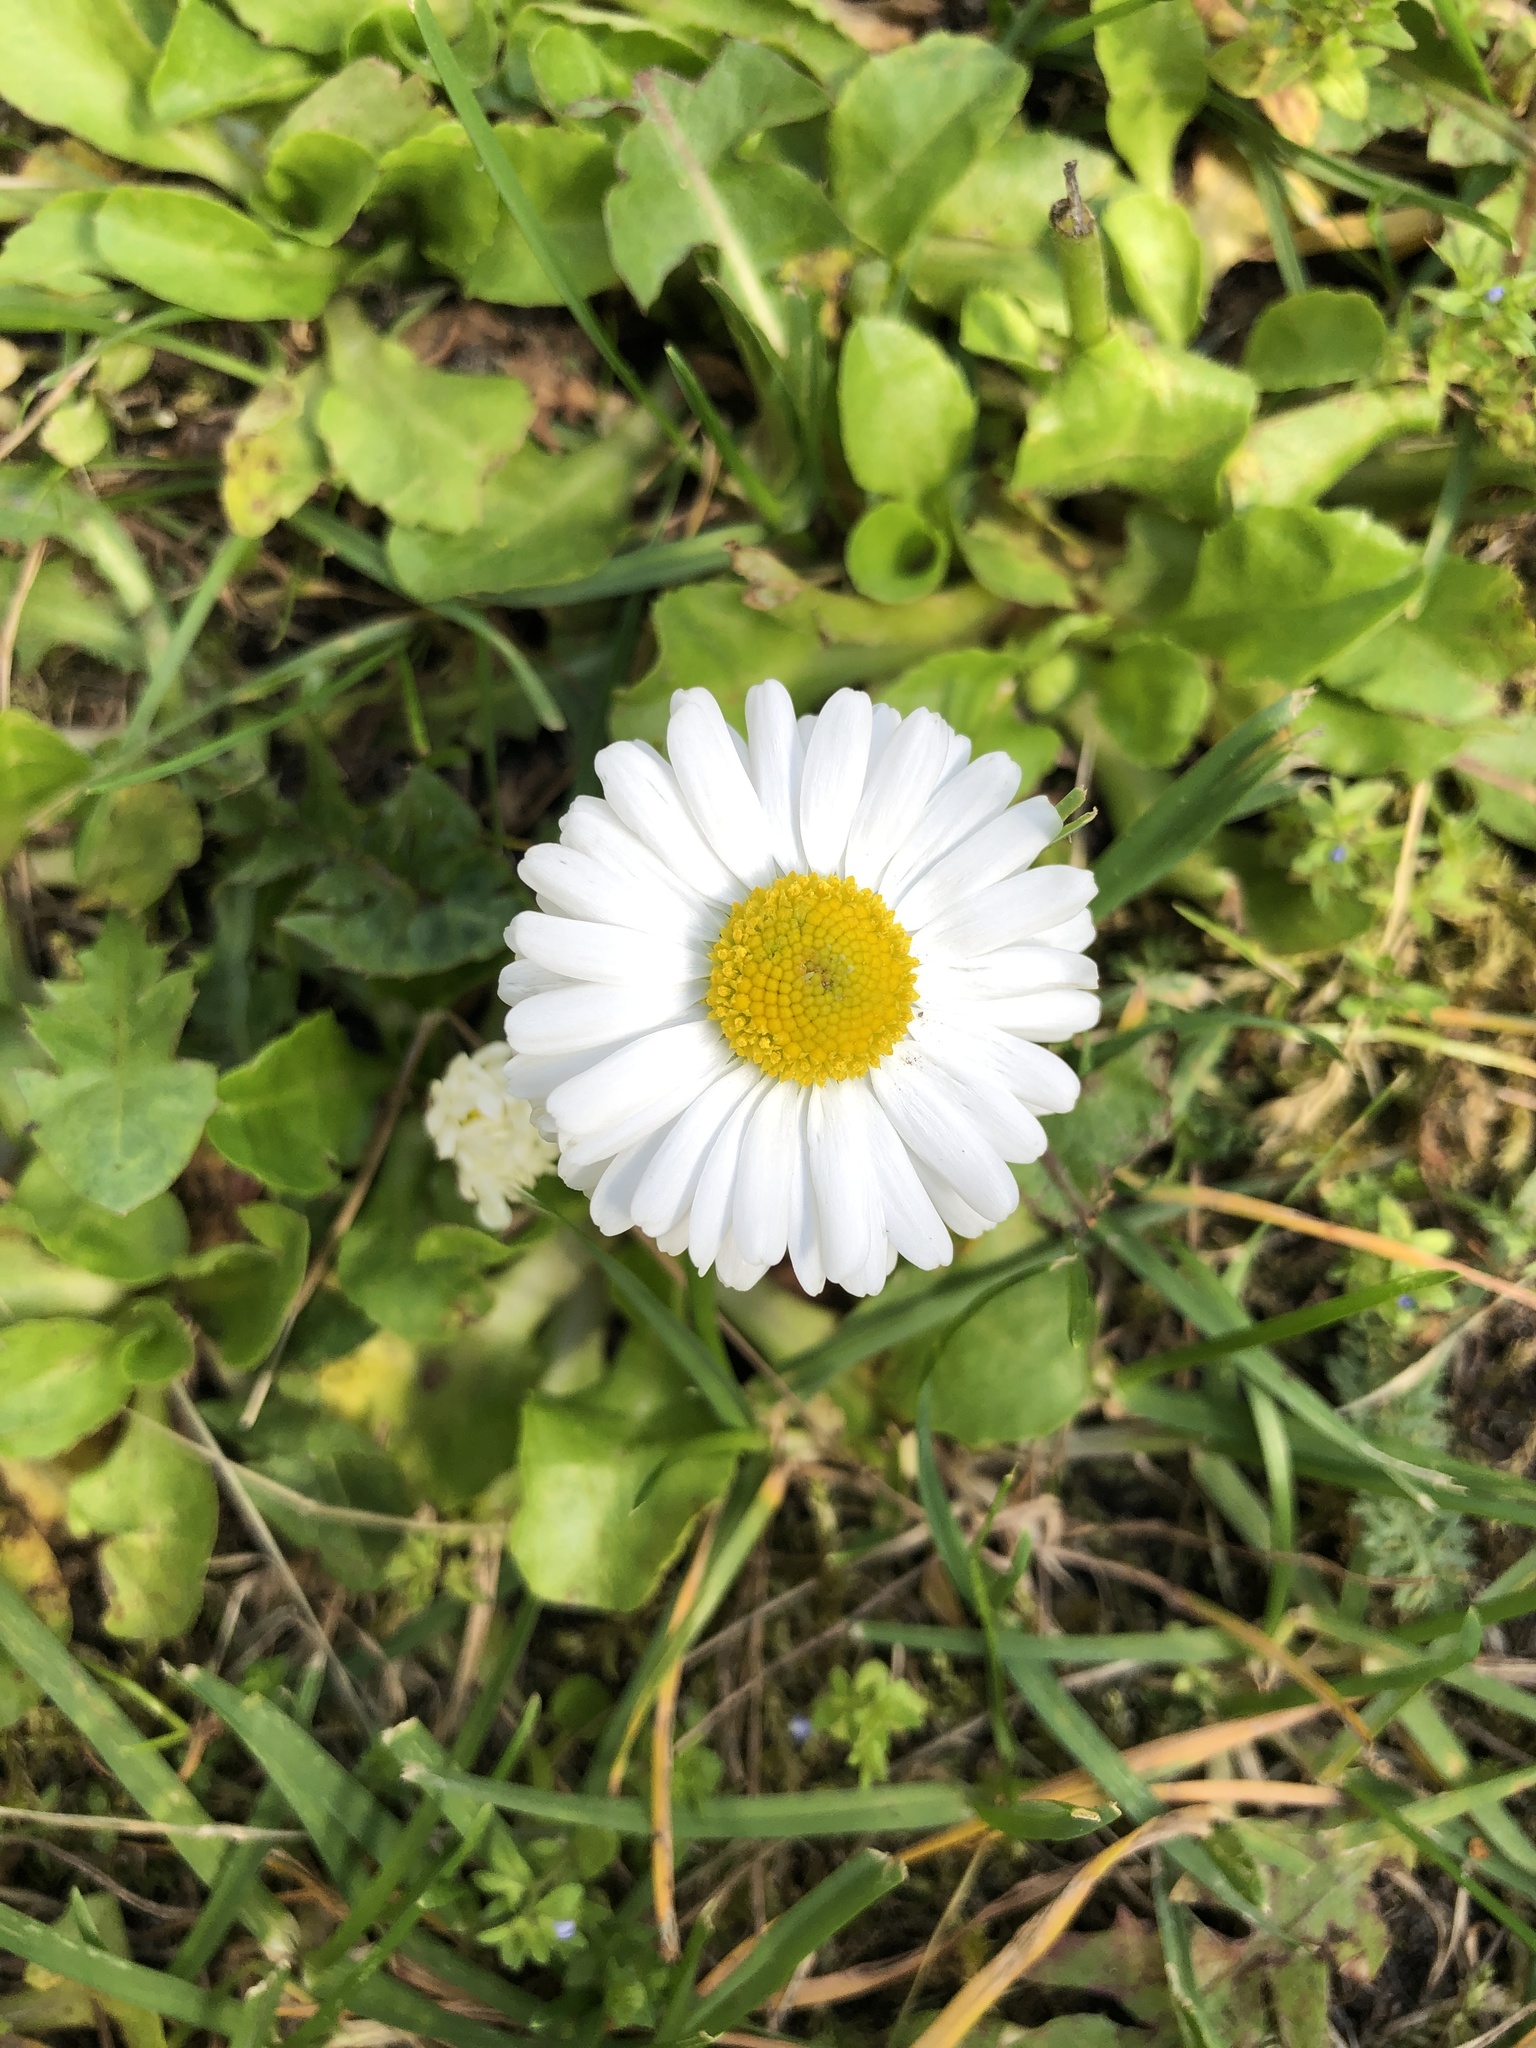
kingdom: Plantae
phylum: Tracheophyta
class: Magnoliopsida
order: Asterales
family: Asteraceae
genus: Bellis
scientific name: Bellis perennis
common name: Lawndaisy
